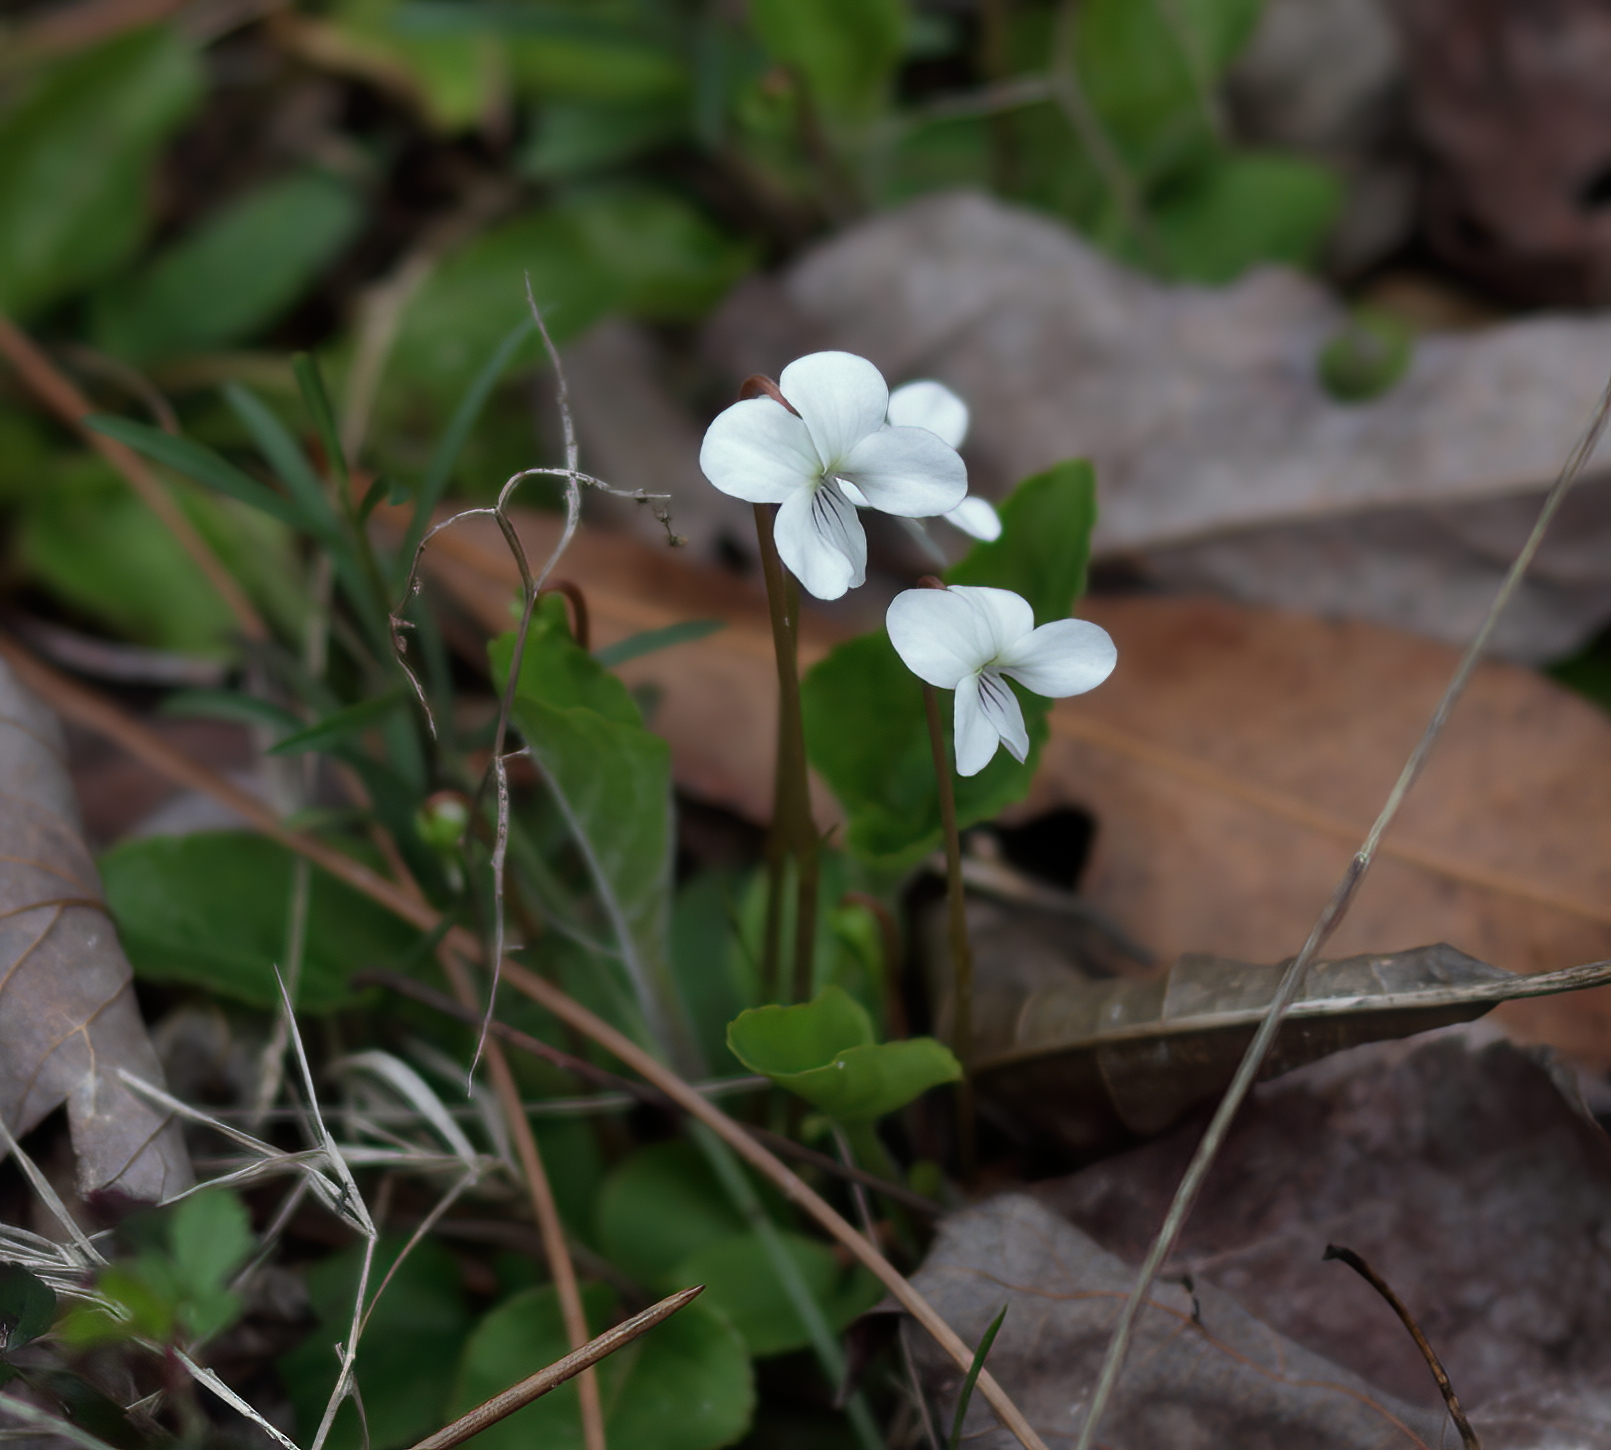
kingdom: Plantae
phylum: Tracheophyta
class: Magnoliopsida
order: Malpighiales
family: Violaceae
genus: Viola
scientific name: Viola primulifolia
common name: Primrose-leaf violet
